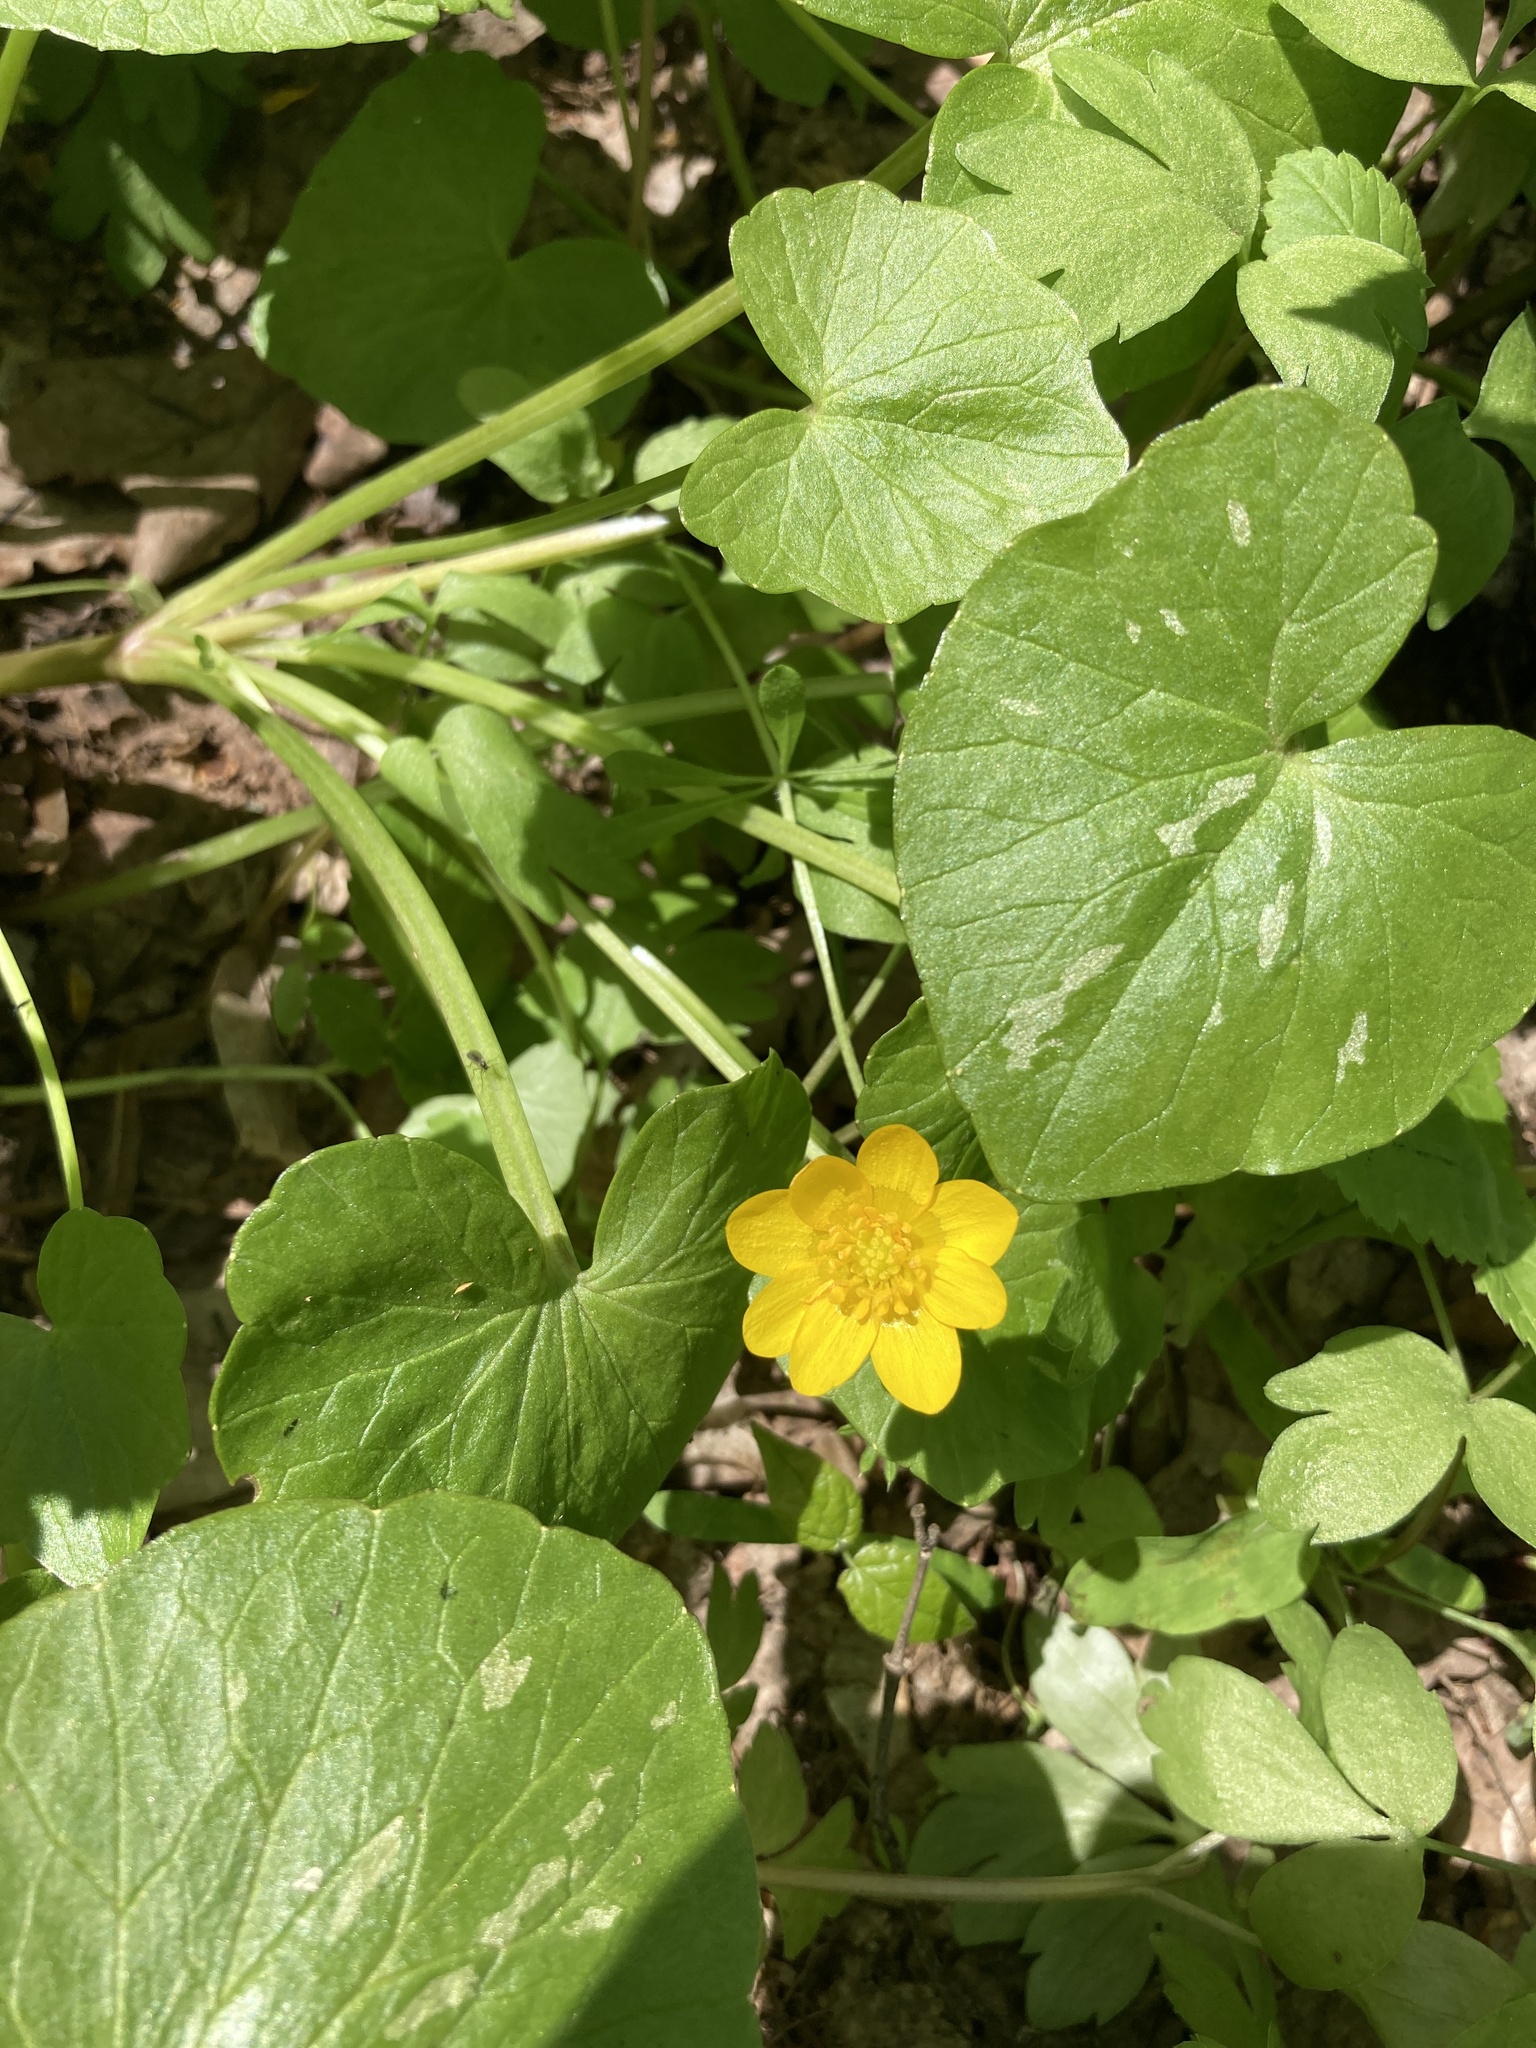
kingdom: Plantae
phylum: Tracheophyta
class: Magnoliopsida
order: Ranunculales
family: Ranunculaceae
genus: Ficaria
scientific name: Ficaria verna
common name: Lesser celandine
